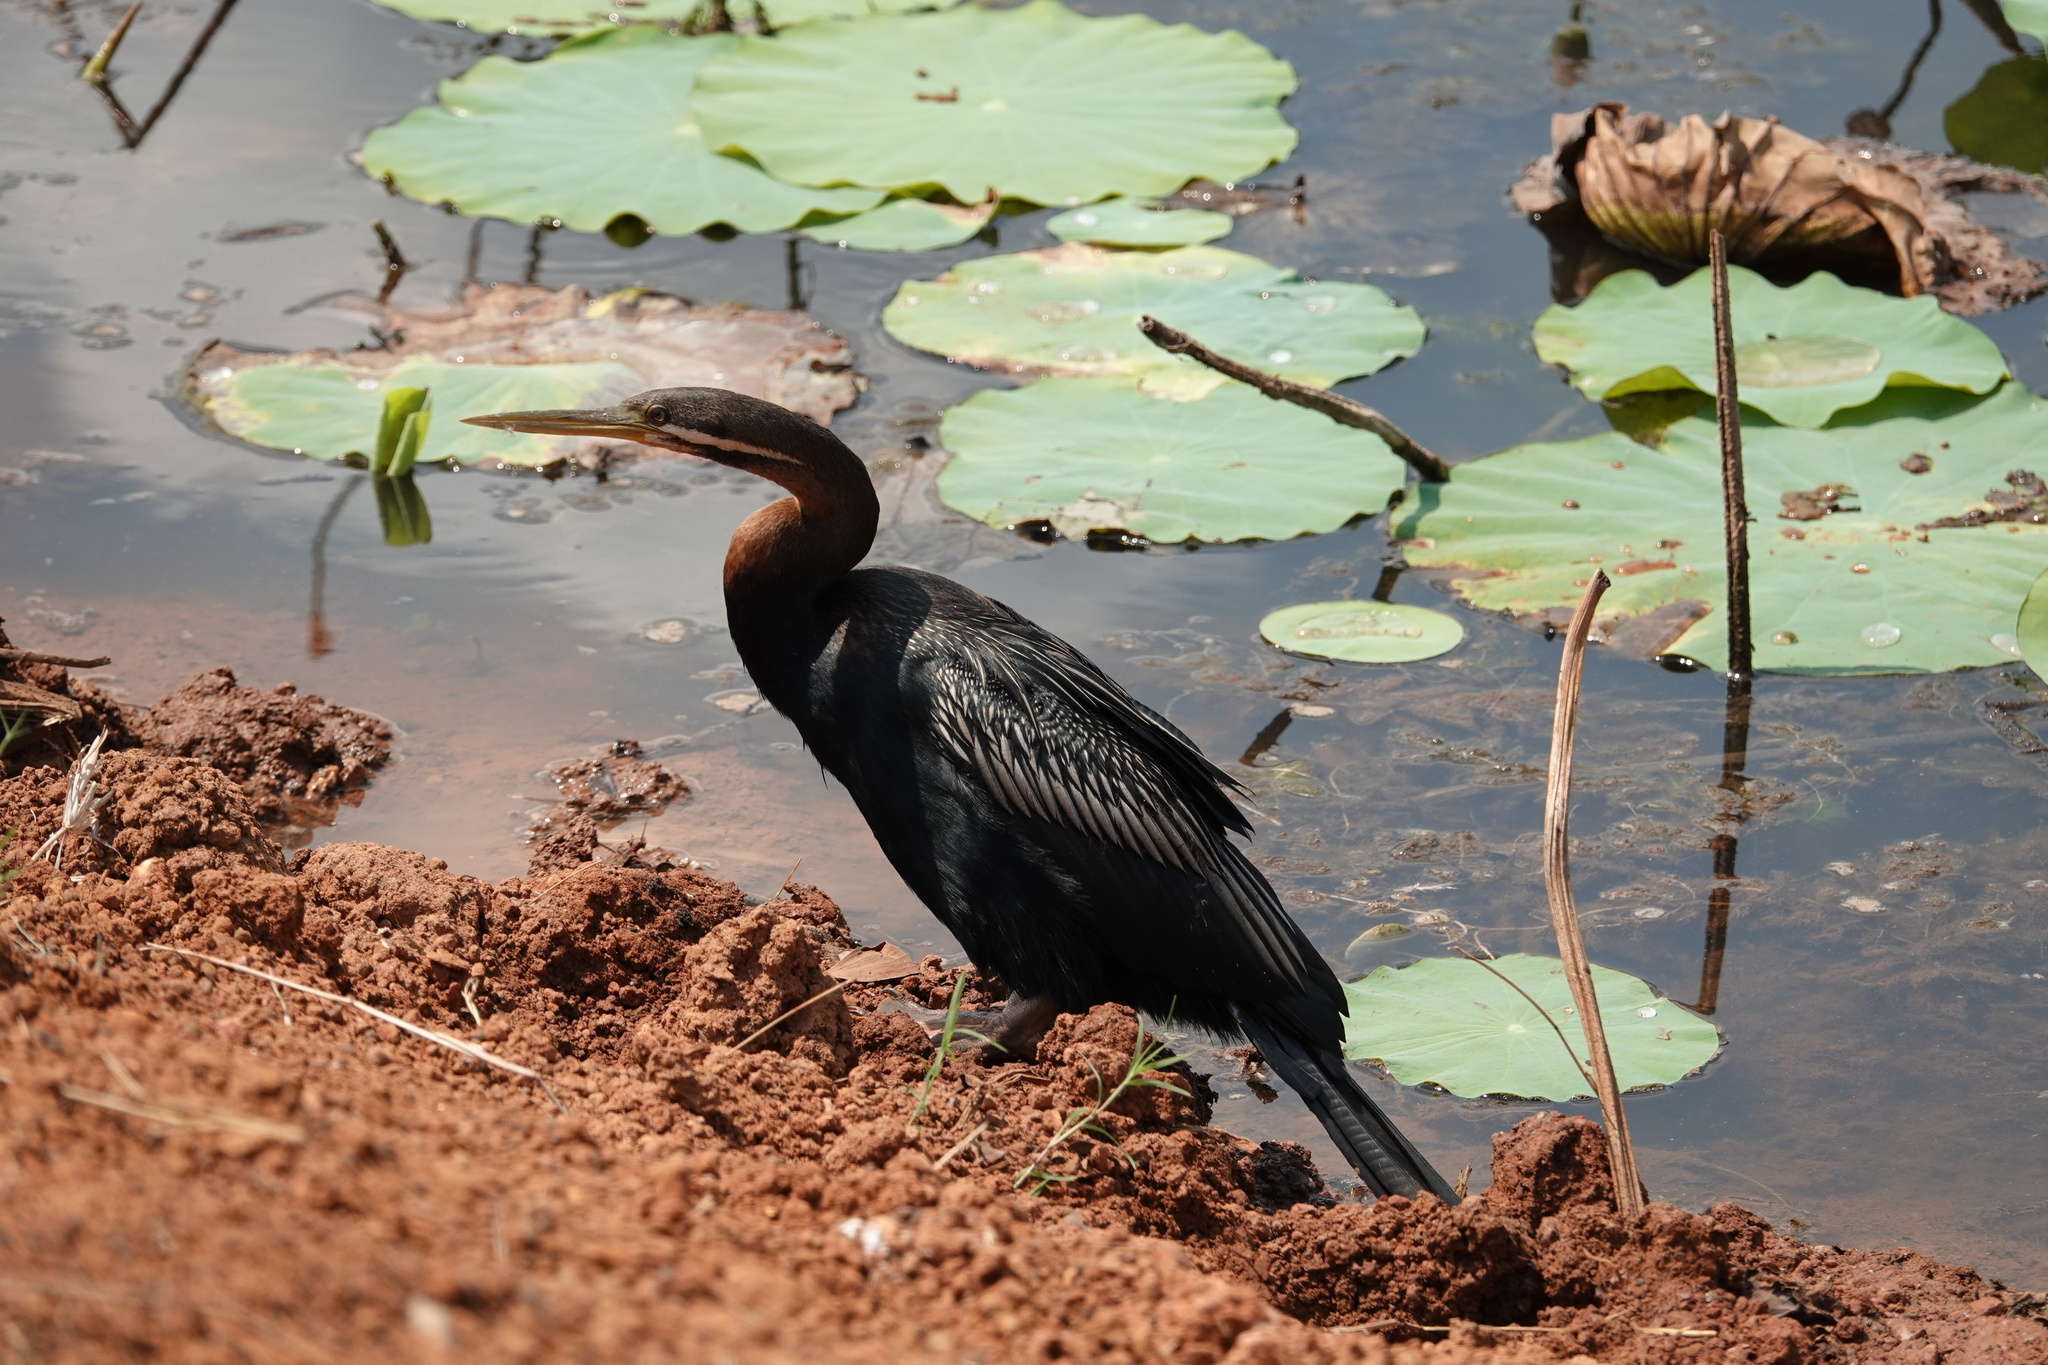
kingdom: Animalia
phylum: Chordata
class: Aves
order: Suliformes
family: Anhingidae
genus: Anhinga
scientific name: Anhinga novaehollandiae
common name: Australasian darter
